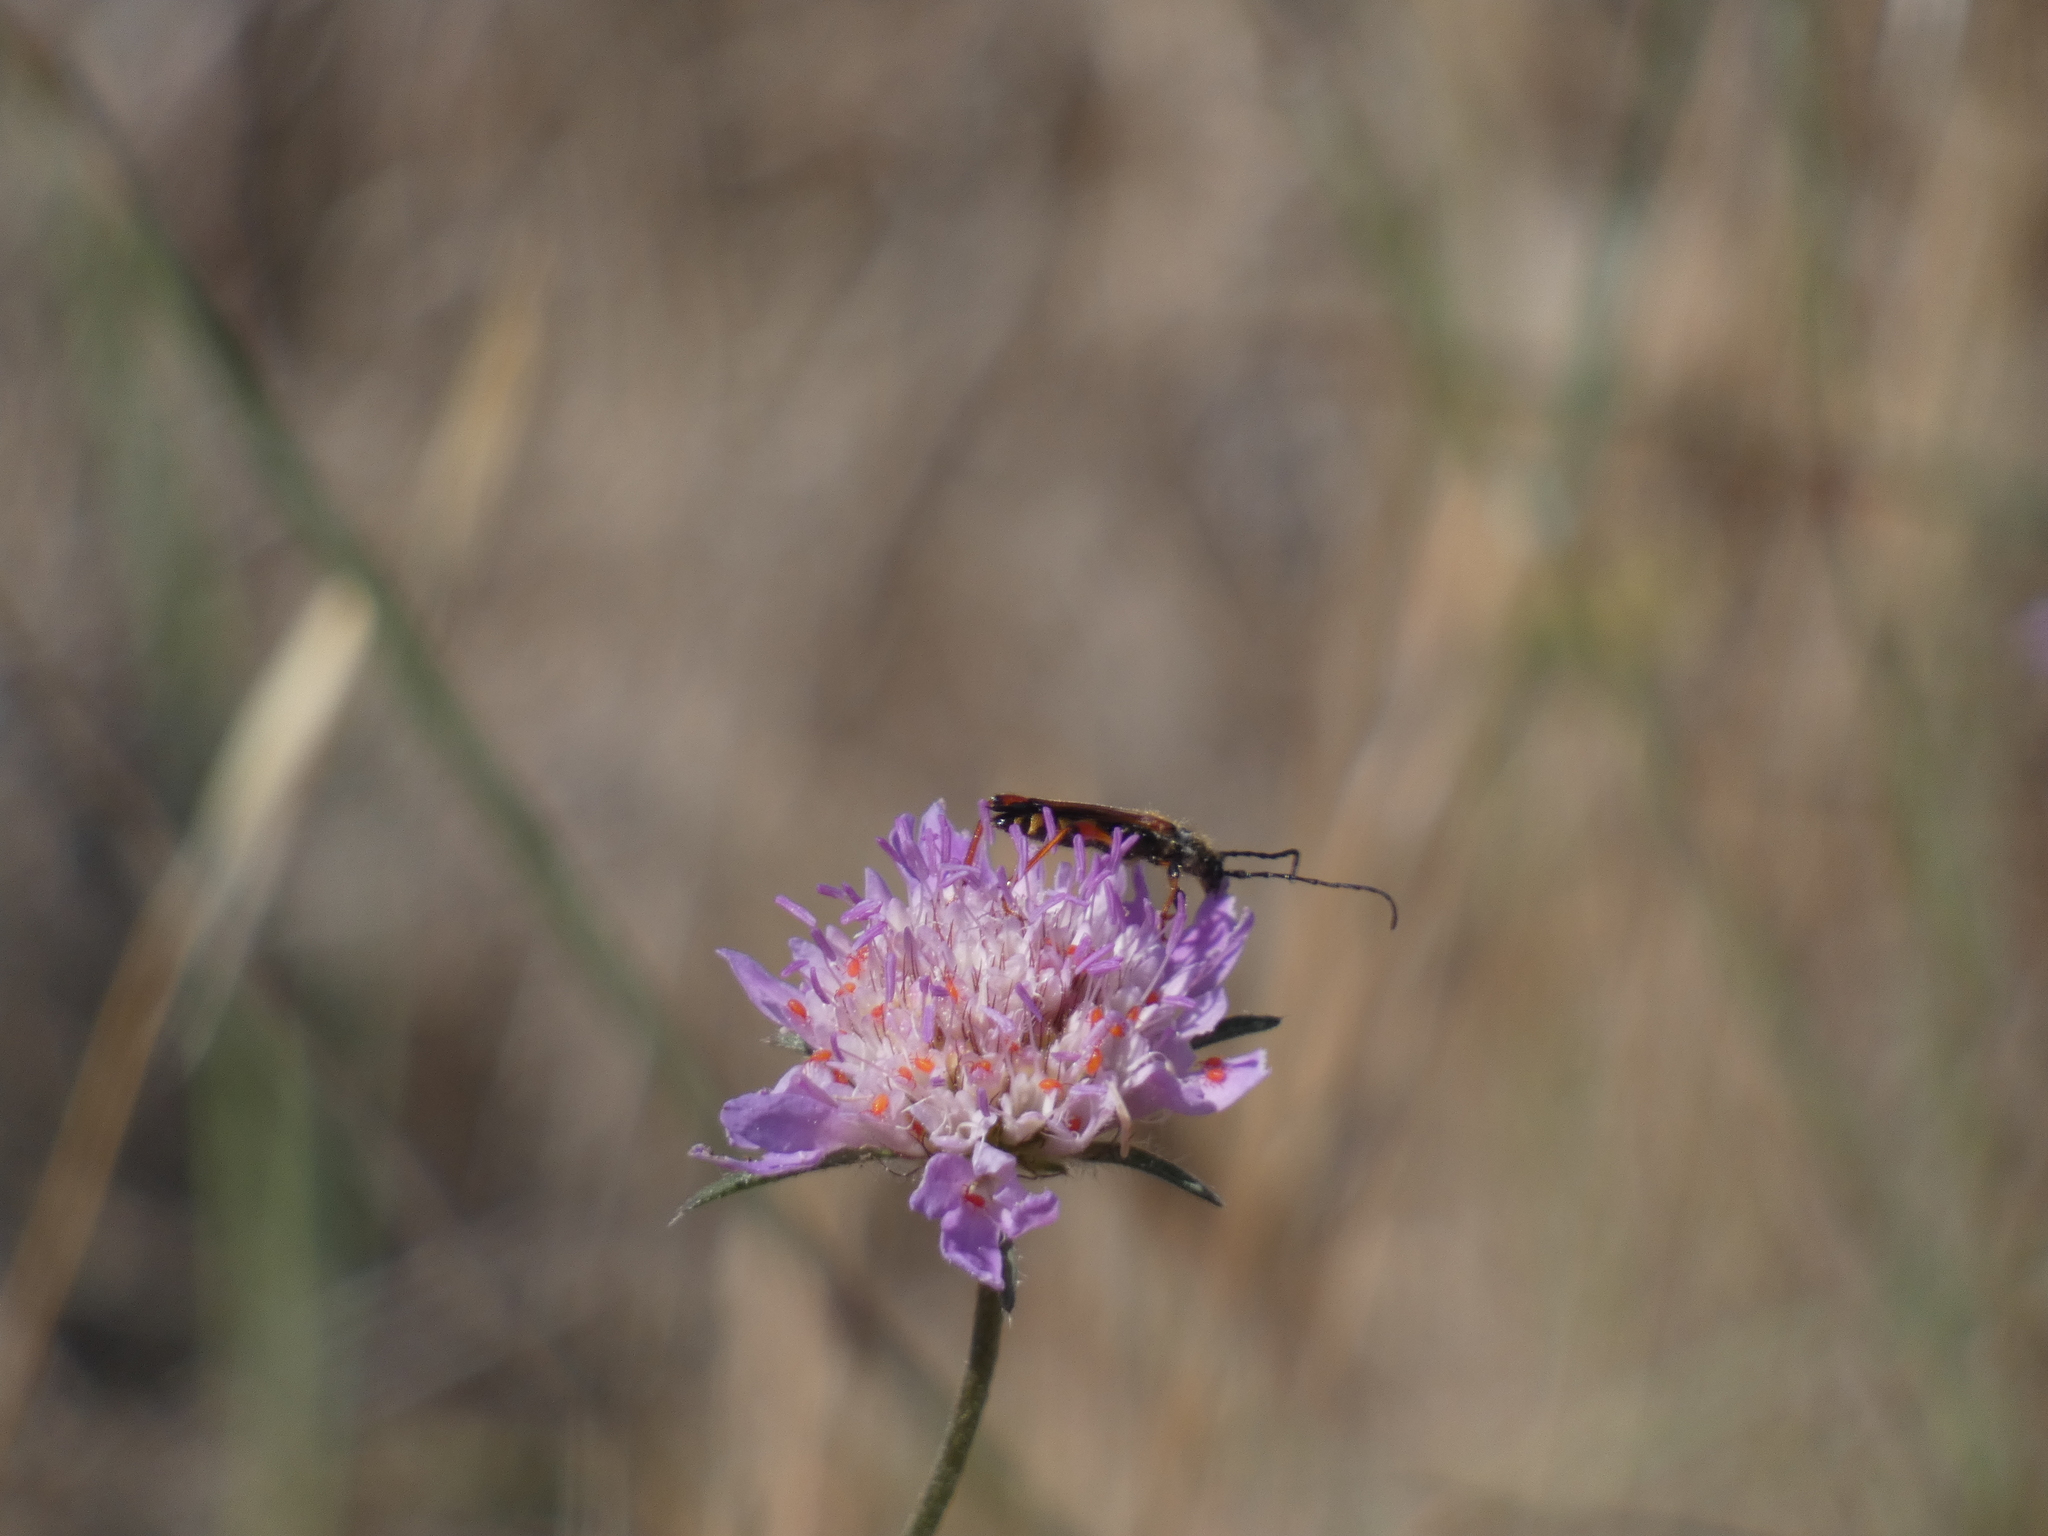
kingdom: Animalia
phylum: Arthropoda
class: Insecta
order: Coleoptera
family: Cerambycidae
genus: Stenopterus
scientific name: Stenopterus rufus
